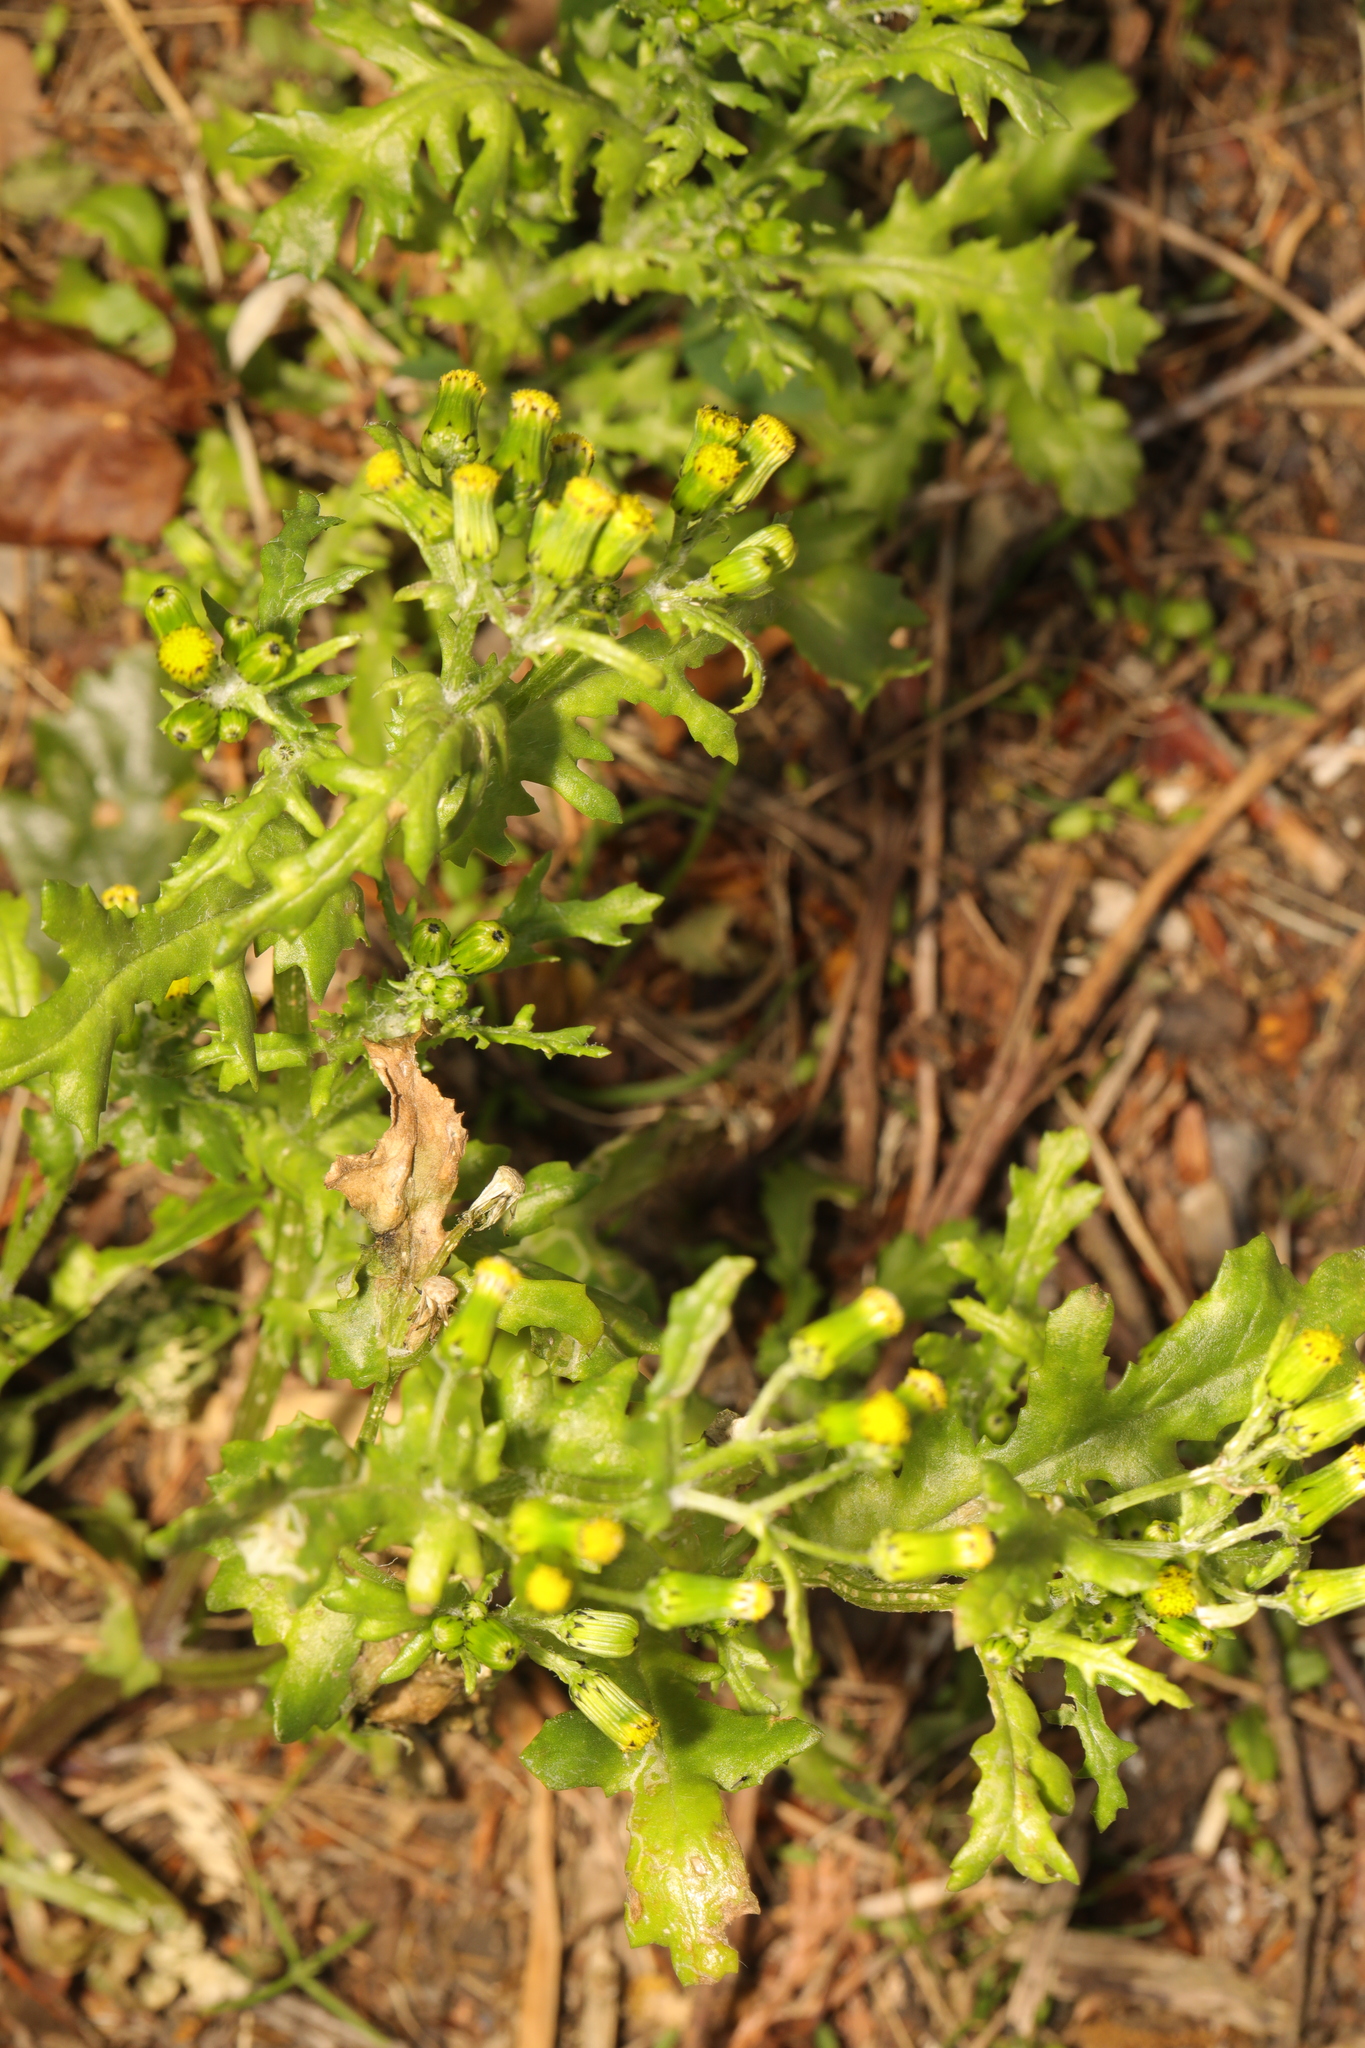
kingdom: Plantae
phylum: Tracheophyta
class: Magnoliopsida
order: Asterales
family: Asteraceae
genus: Senecio
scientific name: Senecio vulgaris
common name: Old-man-in-the-spring
